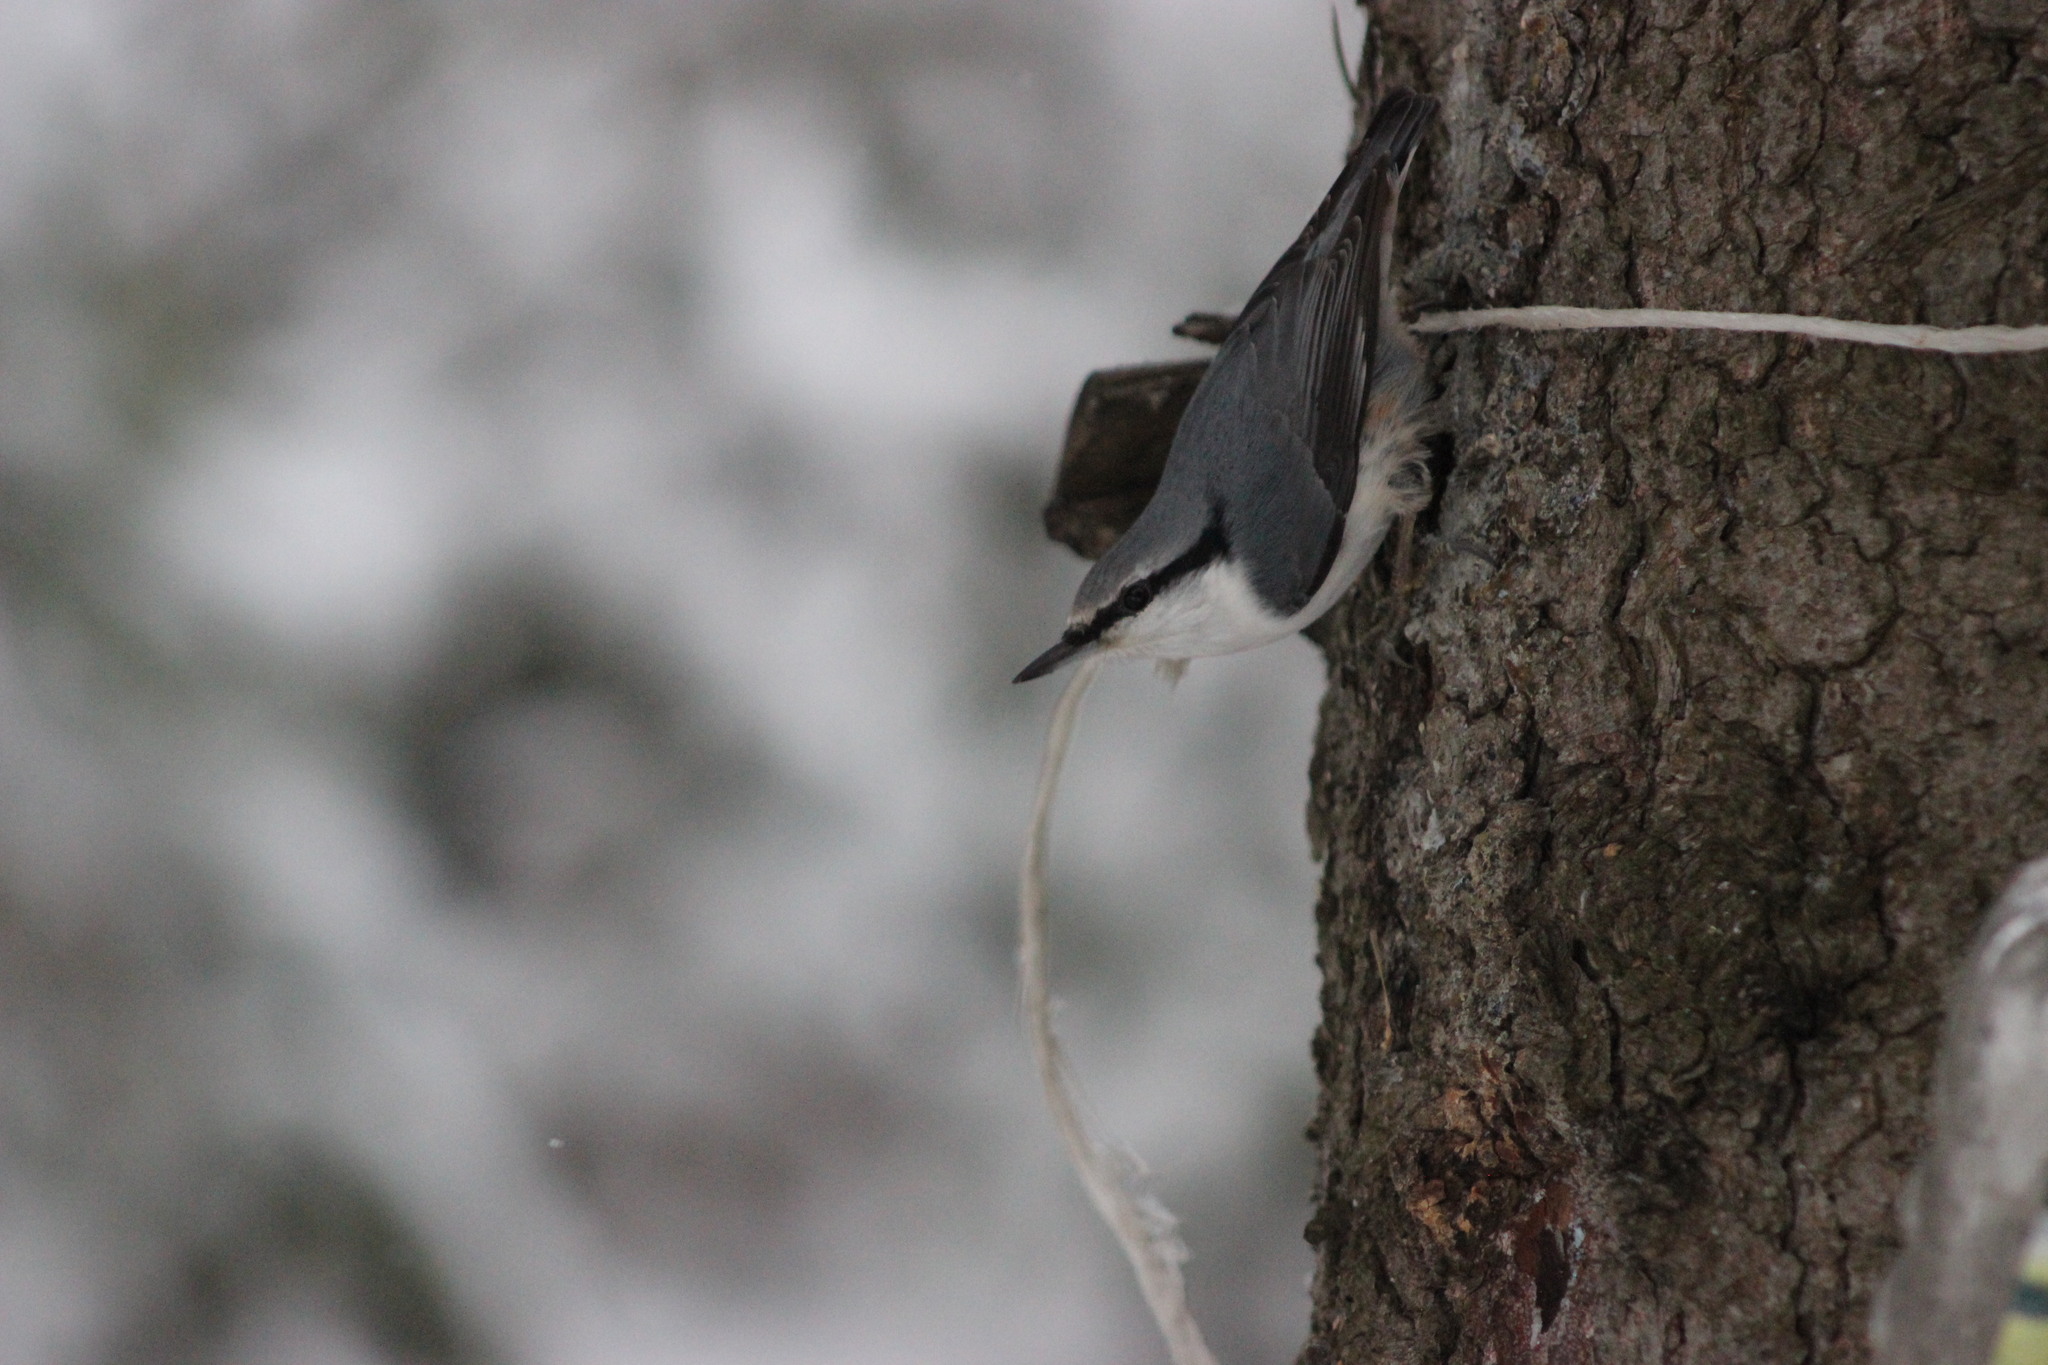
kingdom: Animalia
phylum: Chordata
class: Aves
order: Passeriformes
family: Sittidae
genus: Sitta
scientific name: Sitta europaea
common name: Eurasian nuthatch
